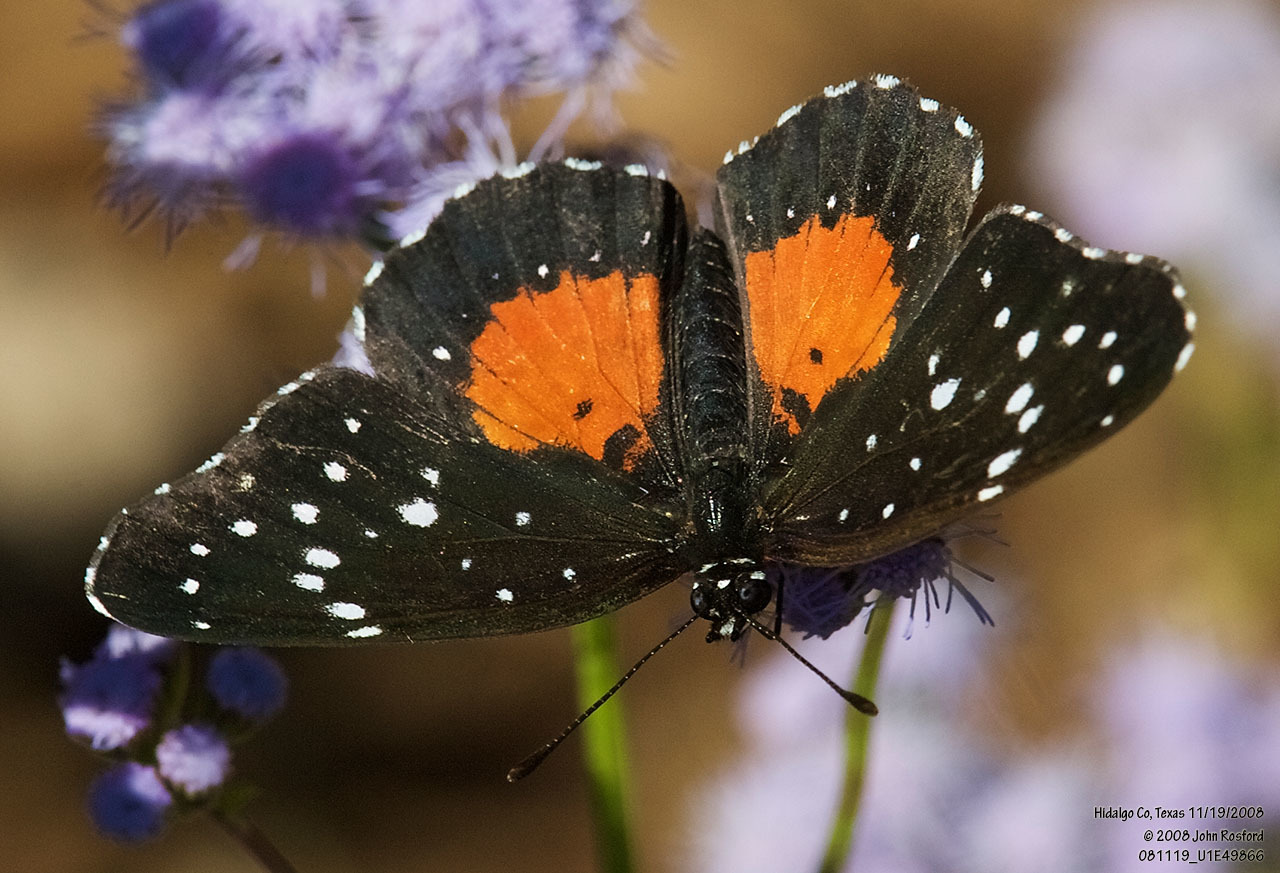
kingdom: Animalia
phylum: Arthropoda
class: Insecta
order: Lepidoptera
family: Nymphalidae
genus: Chlosyne
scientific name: Chlosyne janais
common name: Crimson patch
